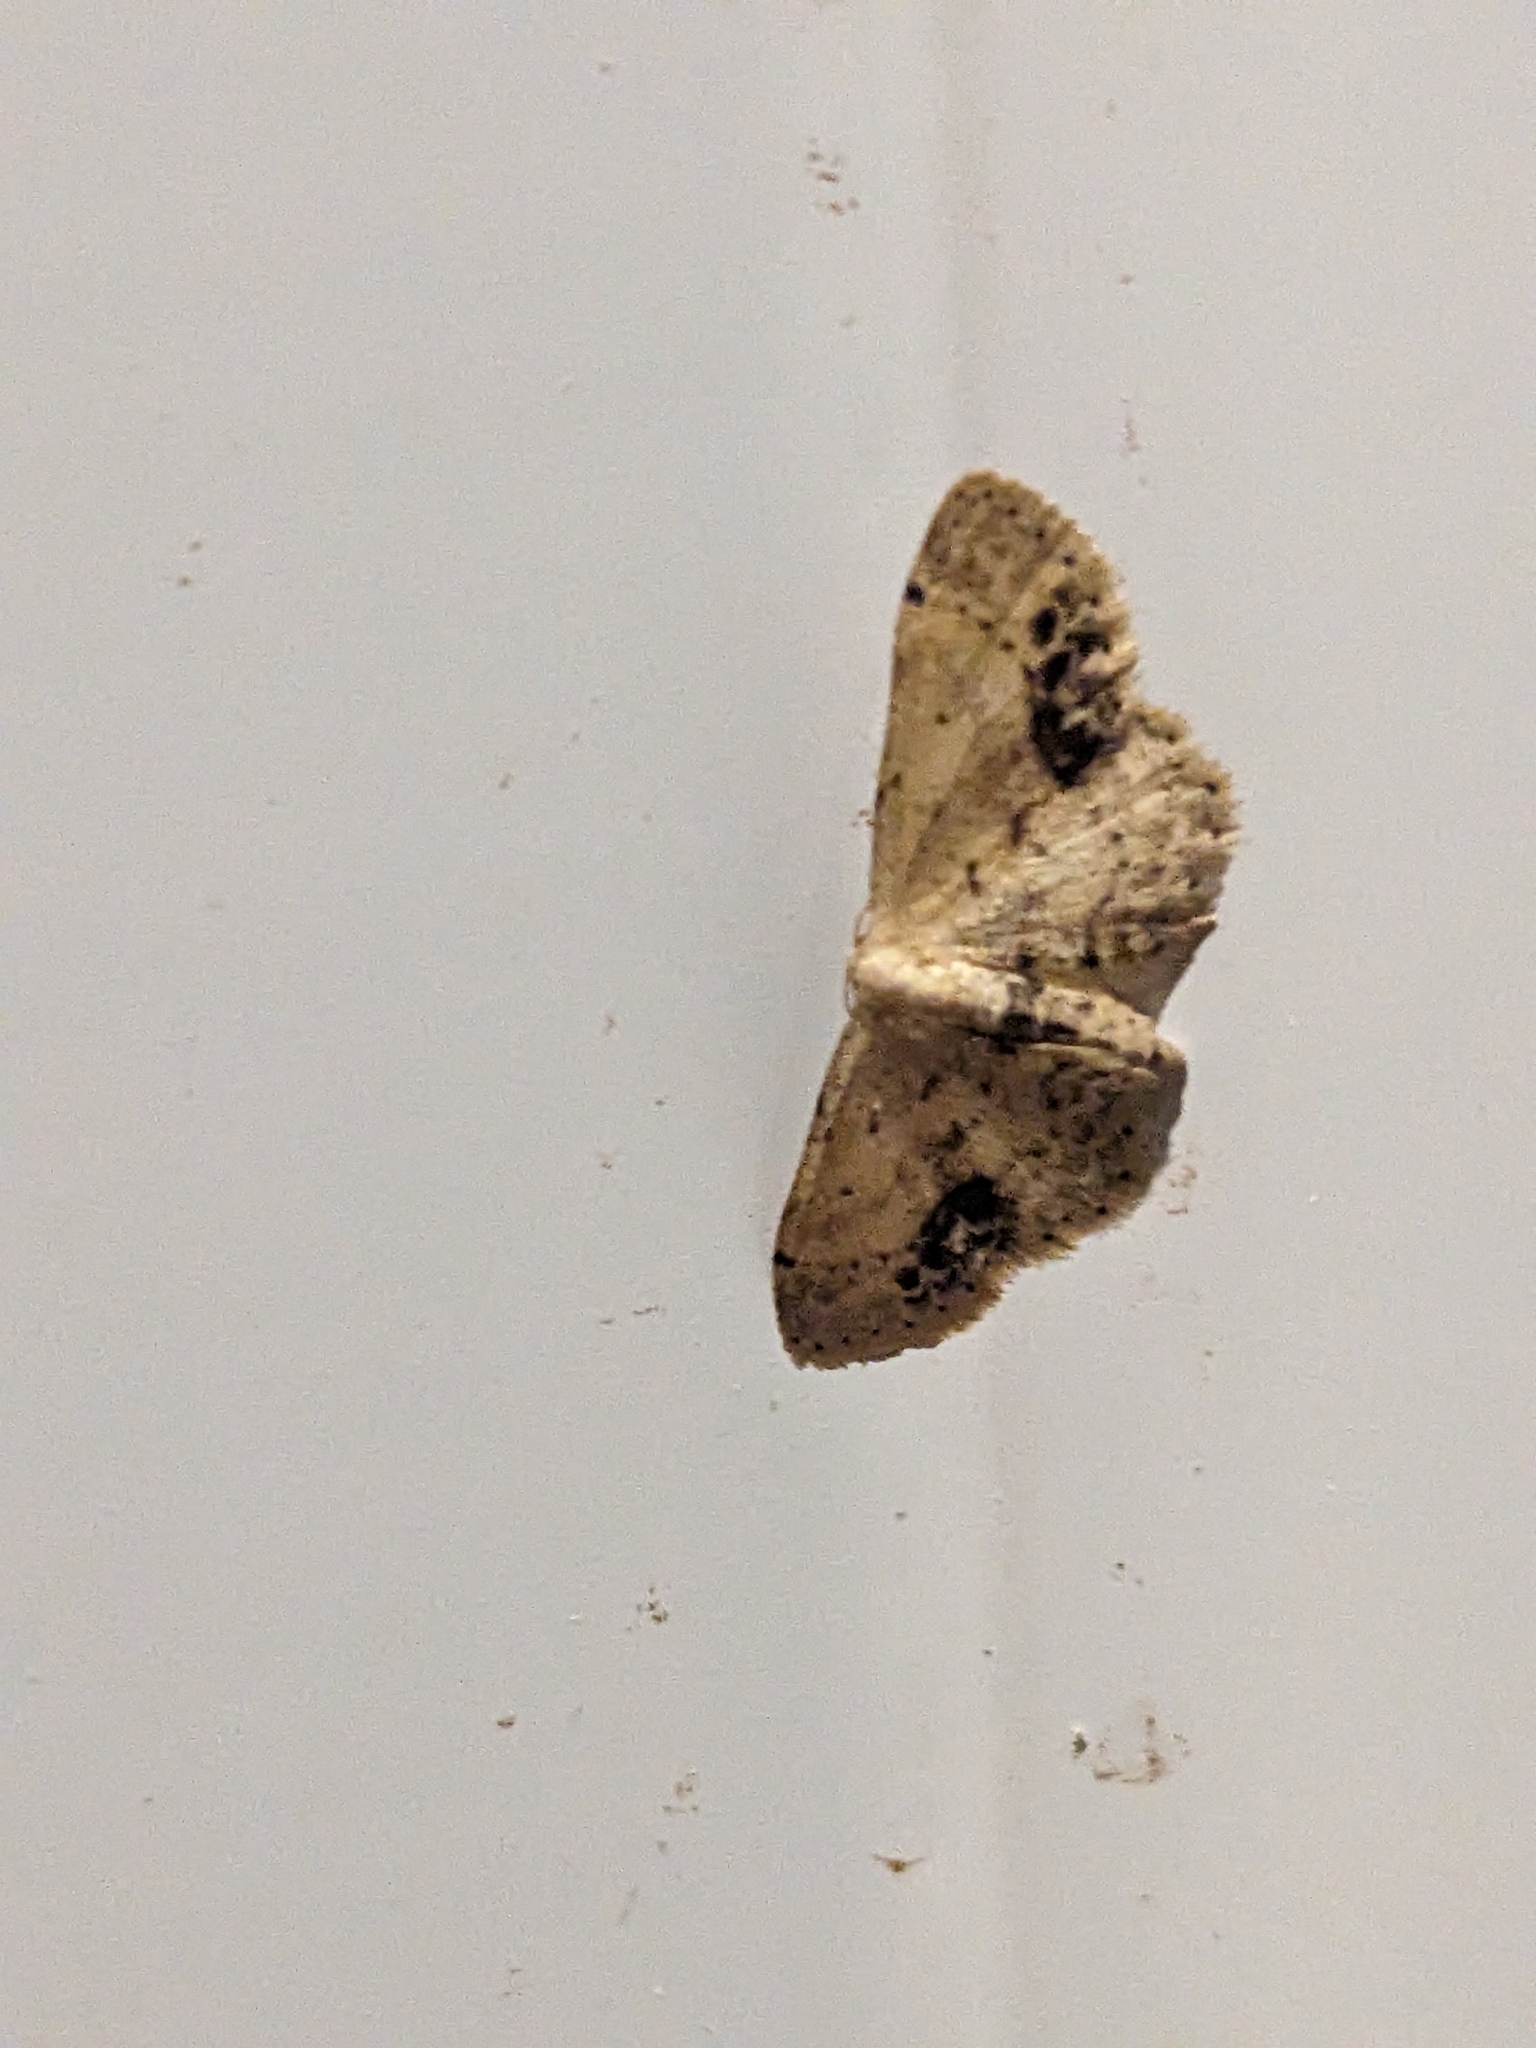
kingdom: Animalia
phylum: Arthropoda
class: Insecta
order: Lepidoptera
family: Geometridae
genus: Idaea
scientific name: Idaea dimidiata
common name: Single-dotted wave
